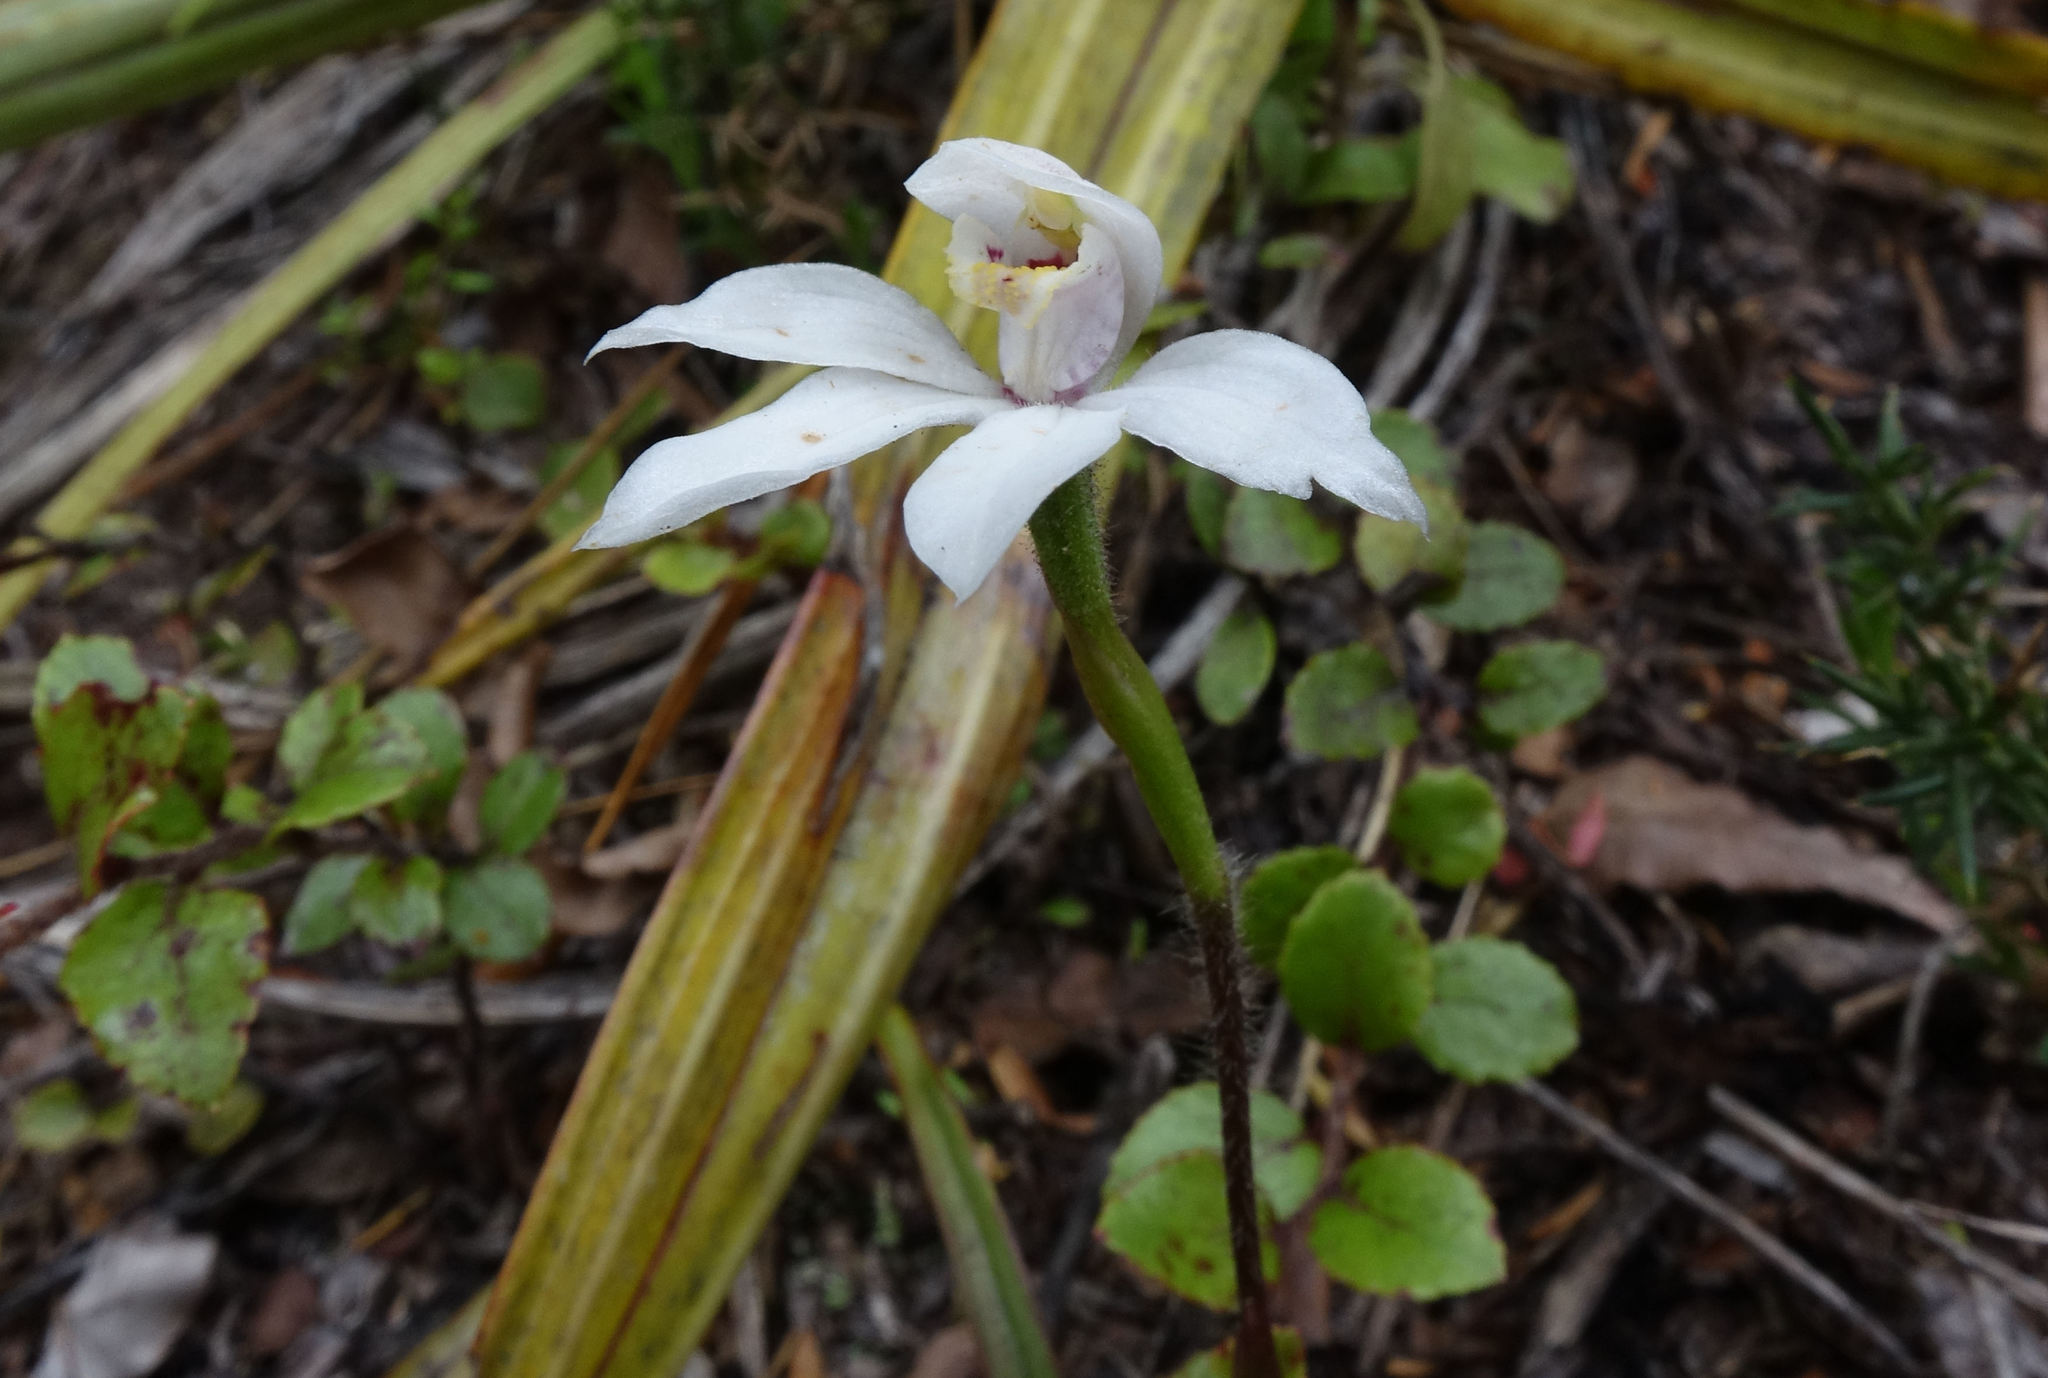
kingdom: Plantae
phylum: Tracheophyta
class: Liliopsida
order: Asparagales
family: Orchidaceae
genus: Caladenia
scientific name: Caladenia lyallii
